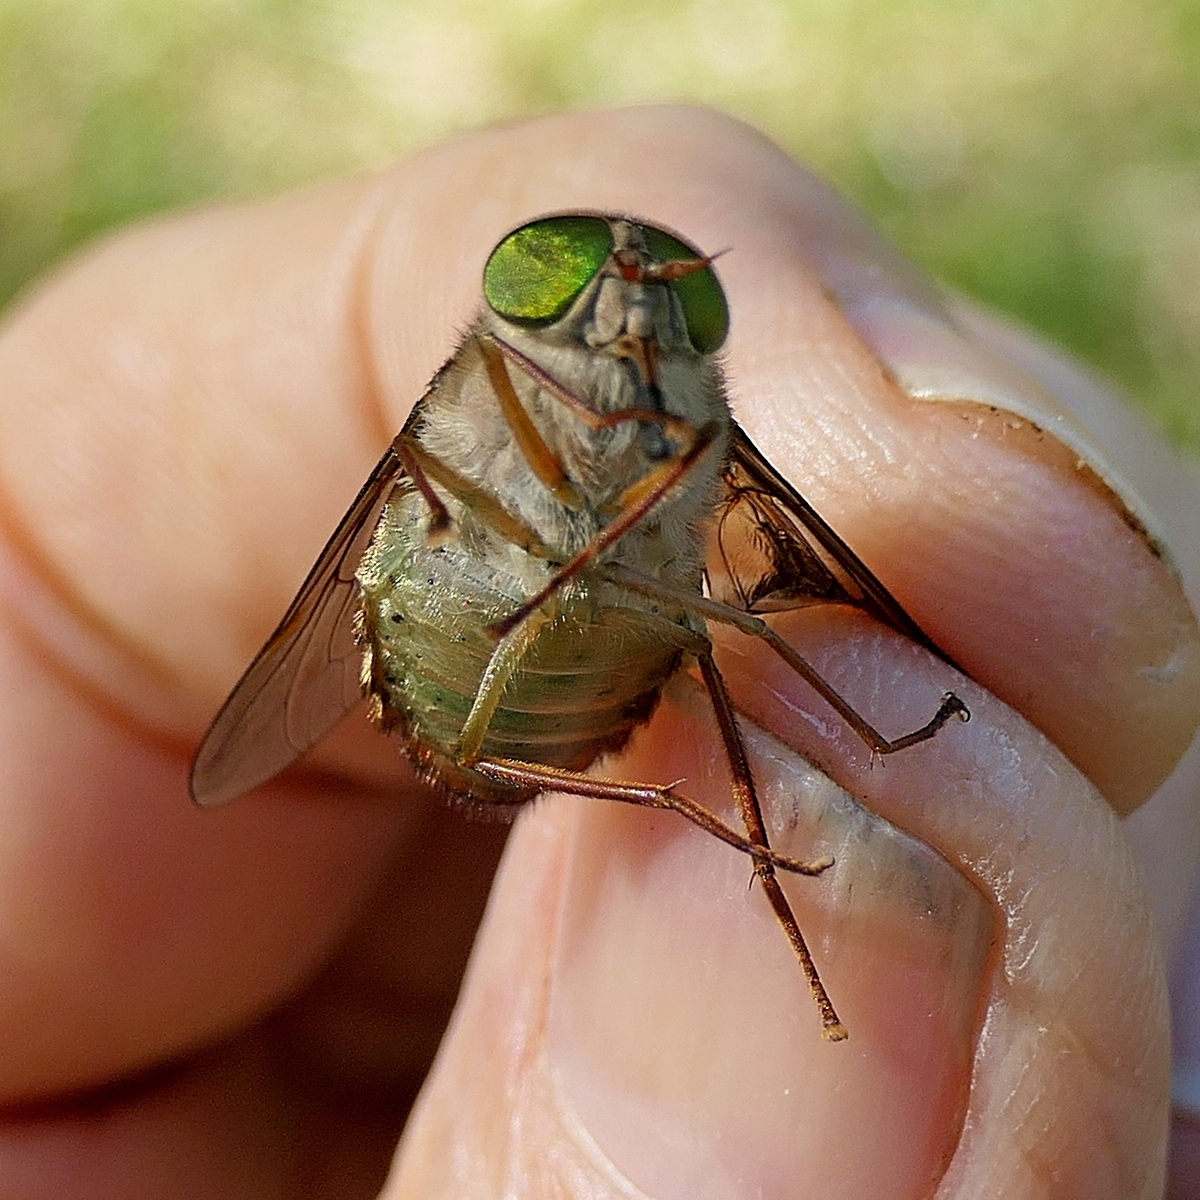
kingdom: Animalia
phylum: Arthropoda
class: Insecta
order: Diptera
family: Tabanidae
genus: Scaptia
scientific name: Scaptia similis
